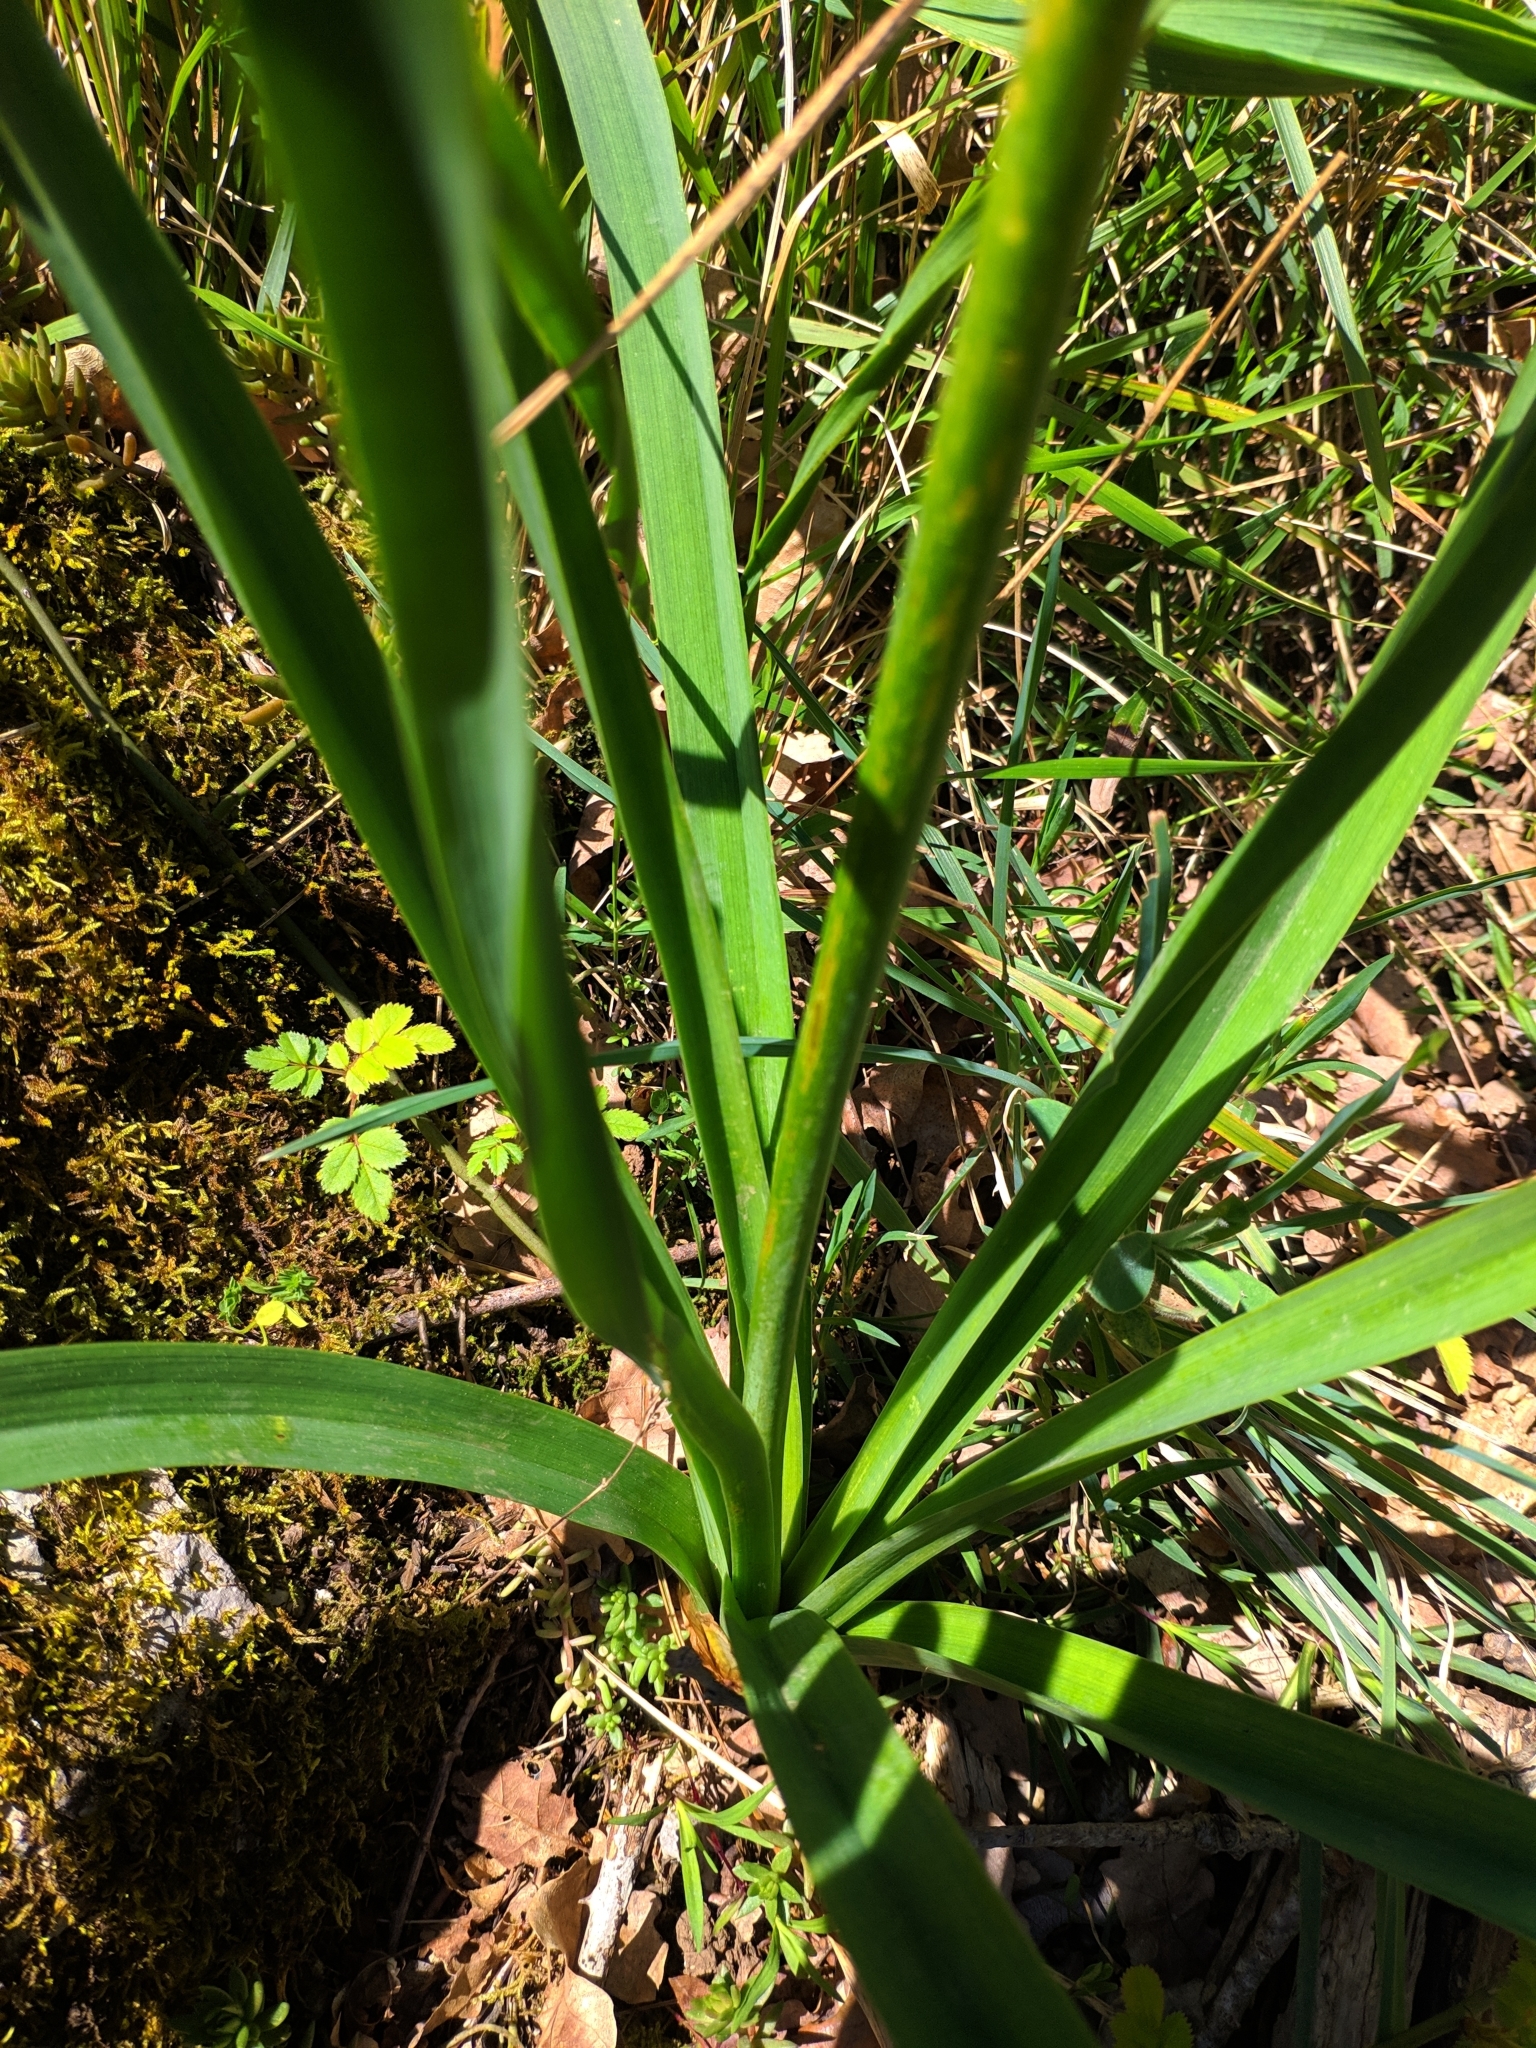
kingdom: Plantae
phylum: Tracheophyta
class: Liliopsida
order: Asparagales
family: Asphodelaceae
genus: Asphodelus
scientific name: Asphodelus albus
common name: White asphodel
